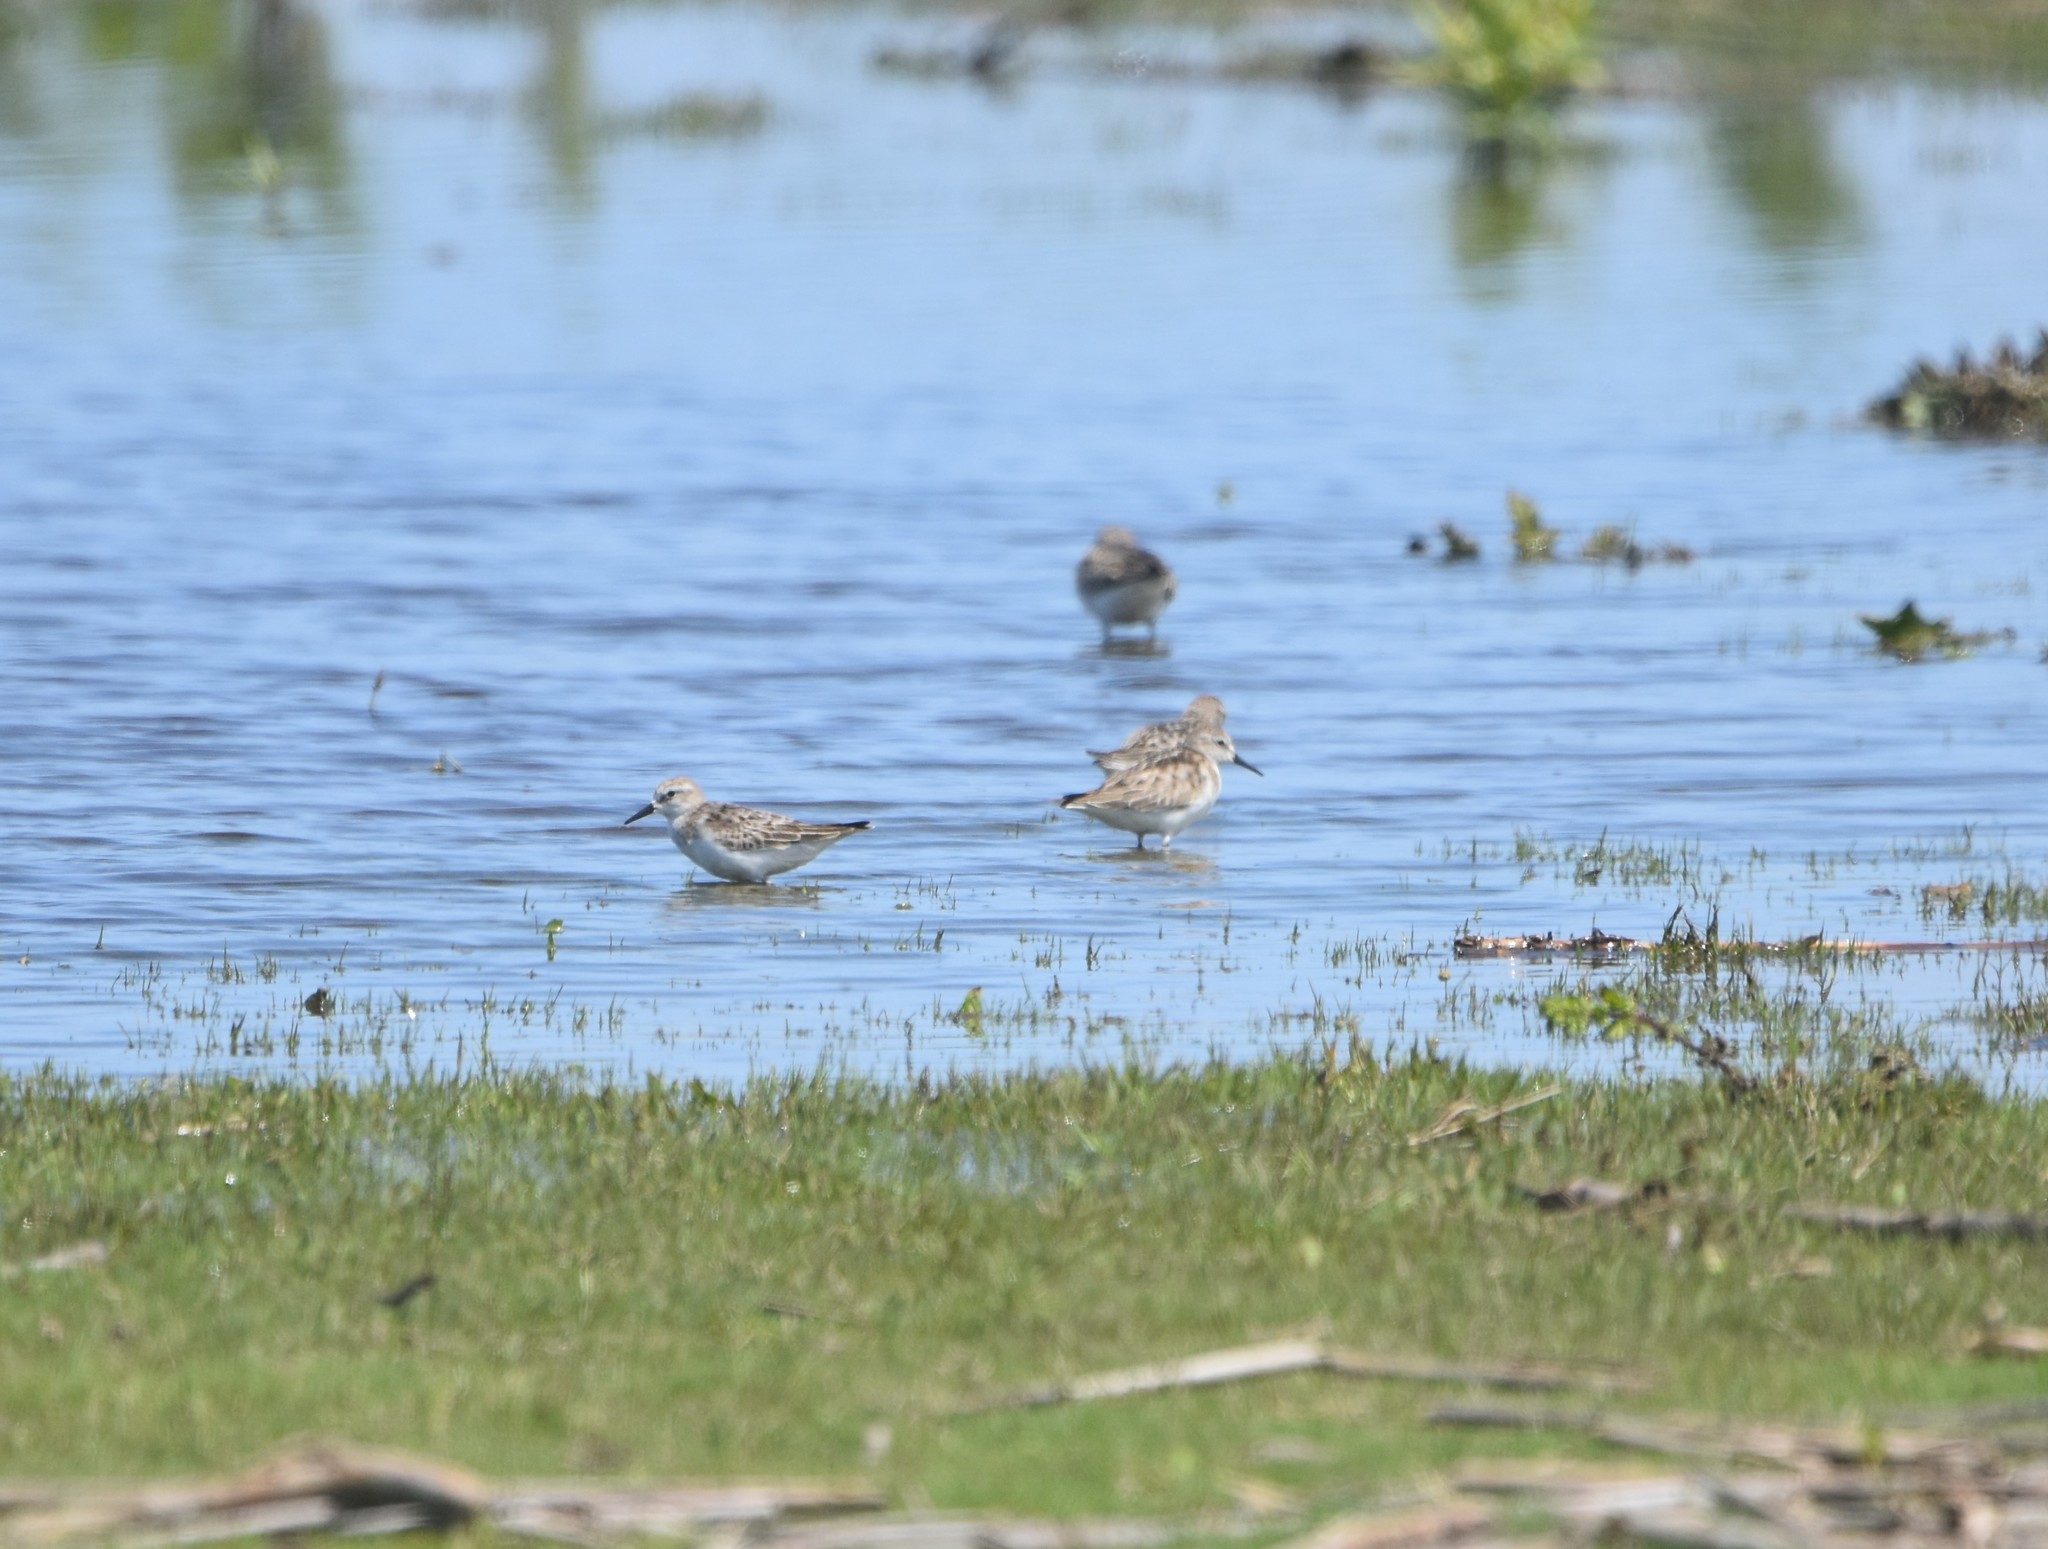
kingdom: Animalia
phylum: Chordata
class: Aves
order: Charadriiformes
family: Scolopacidae
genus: Calidris
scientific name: Calidris minuta
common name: Little stint
